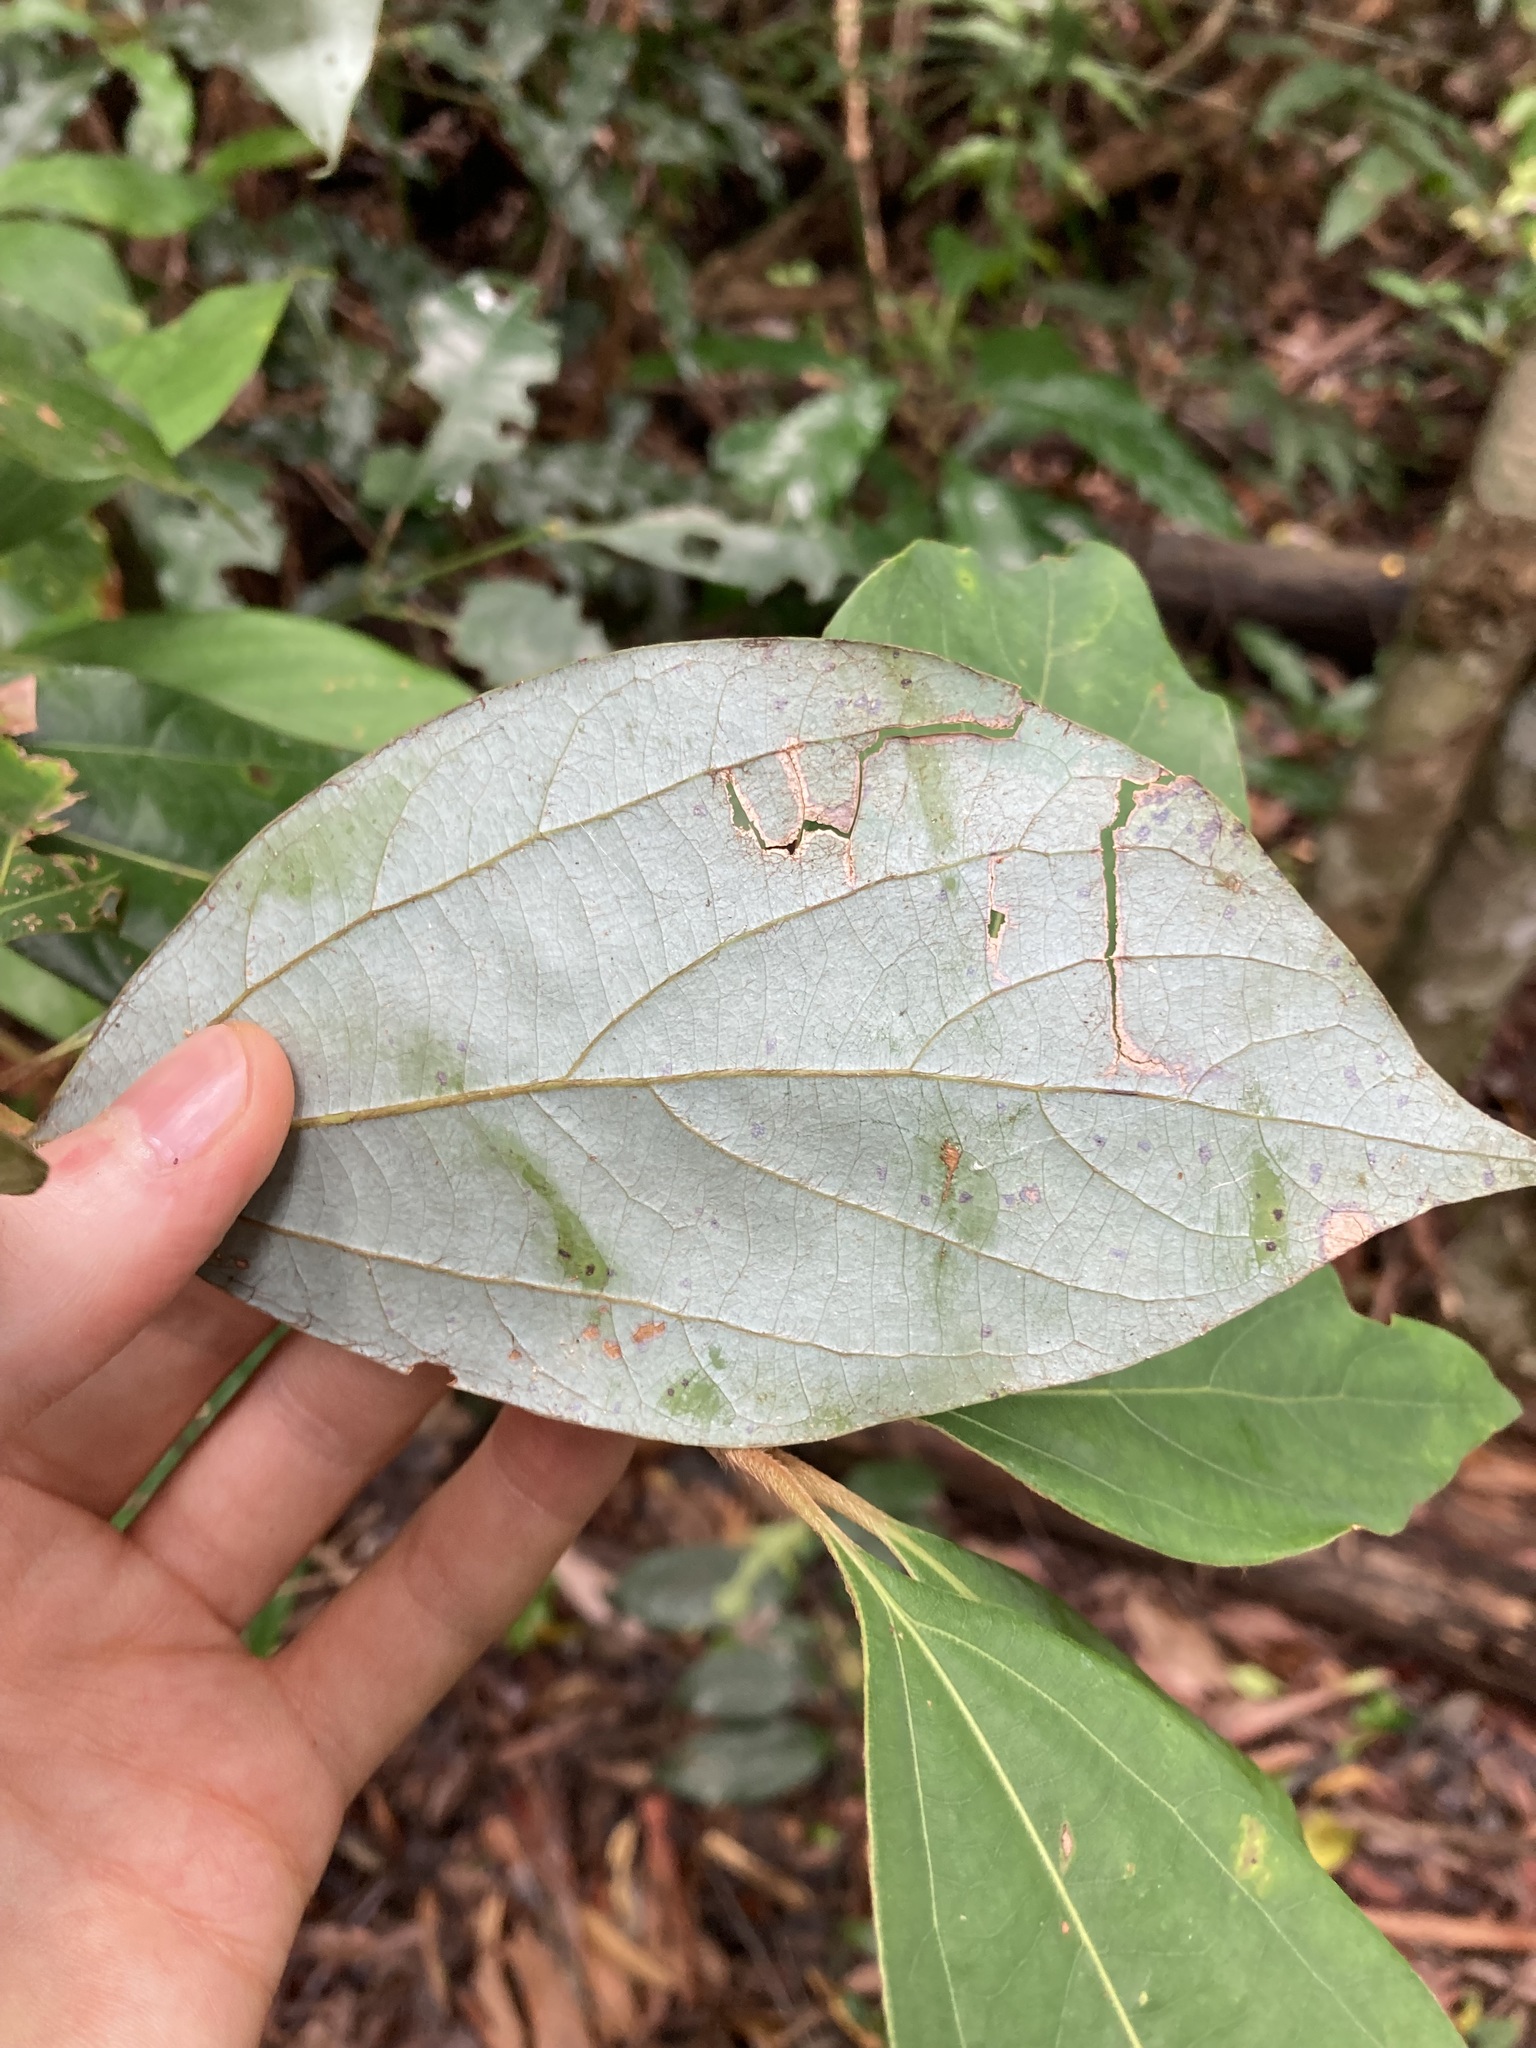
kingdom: Plantae
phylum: Tracheophyta
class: Magnoliopsida
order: Laurales
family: Lauraceae
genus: Neolitsea
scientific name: Neolitsea dealbata
